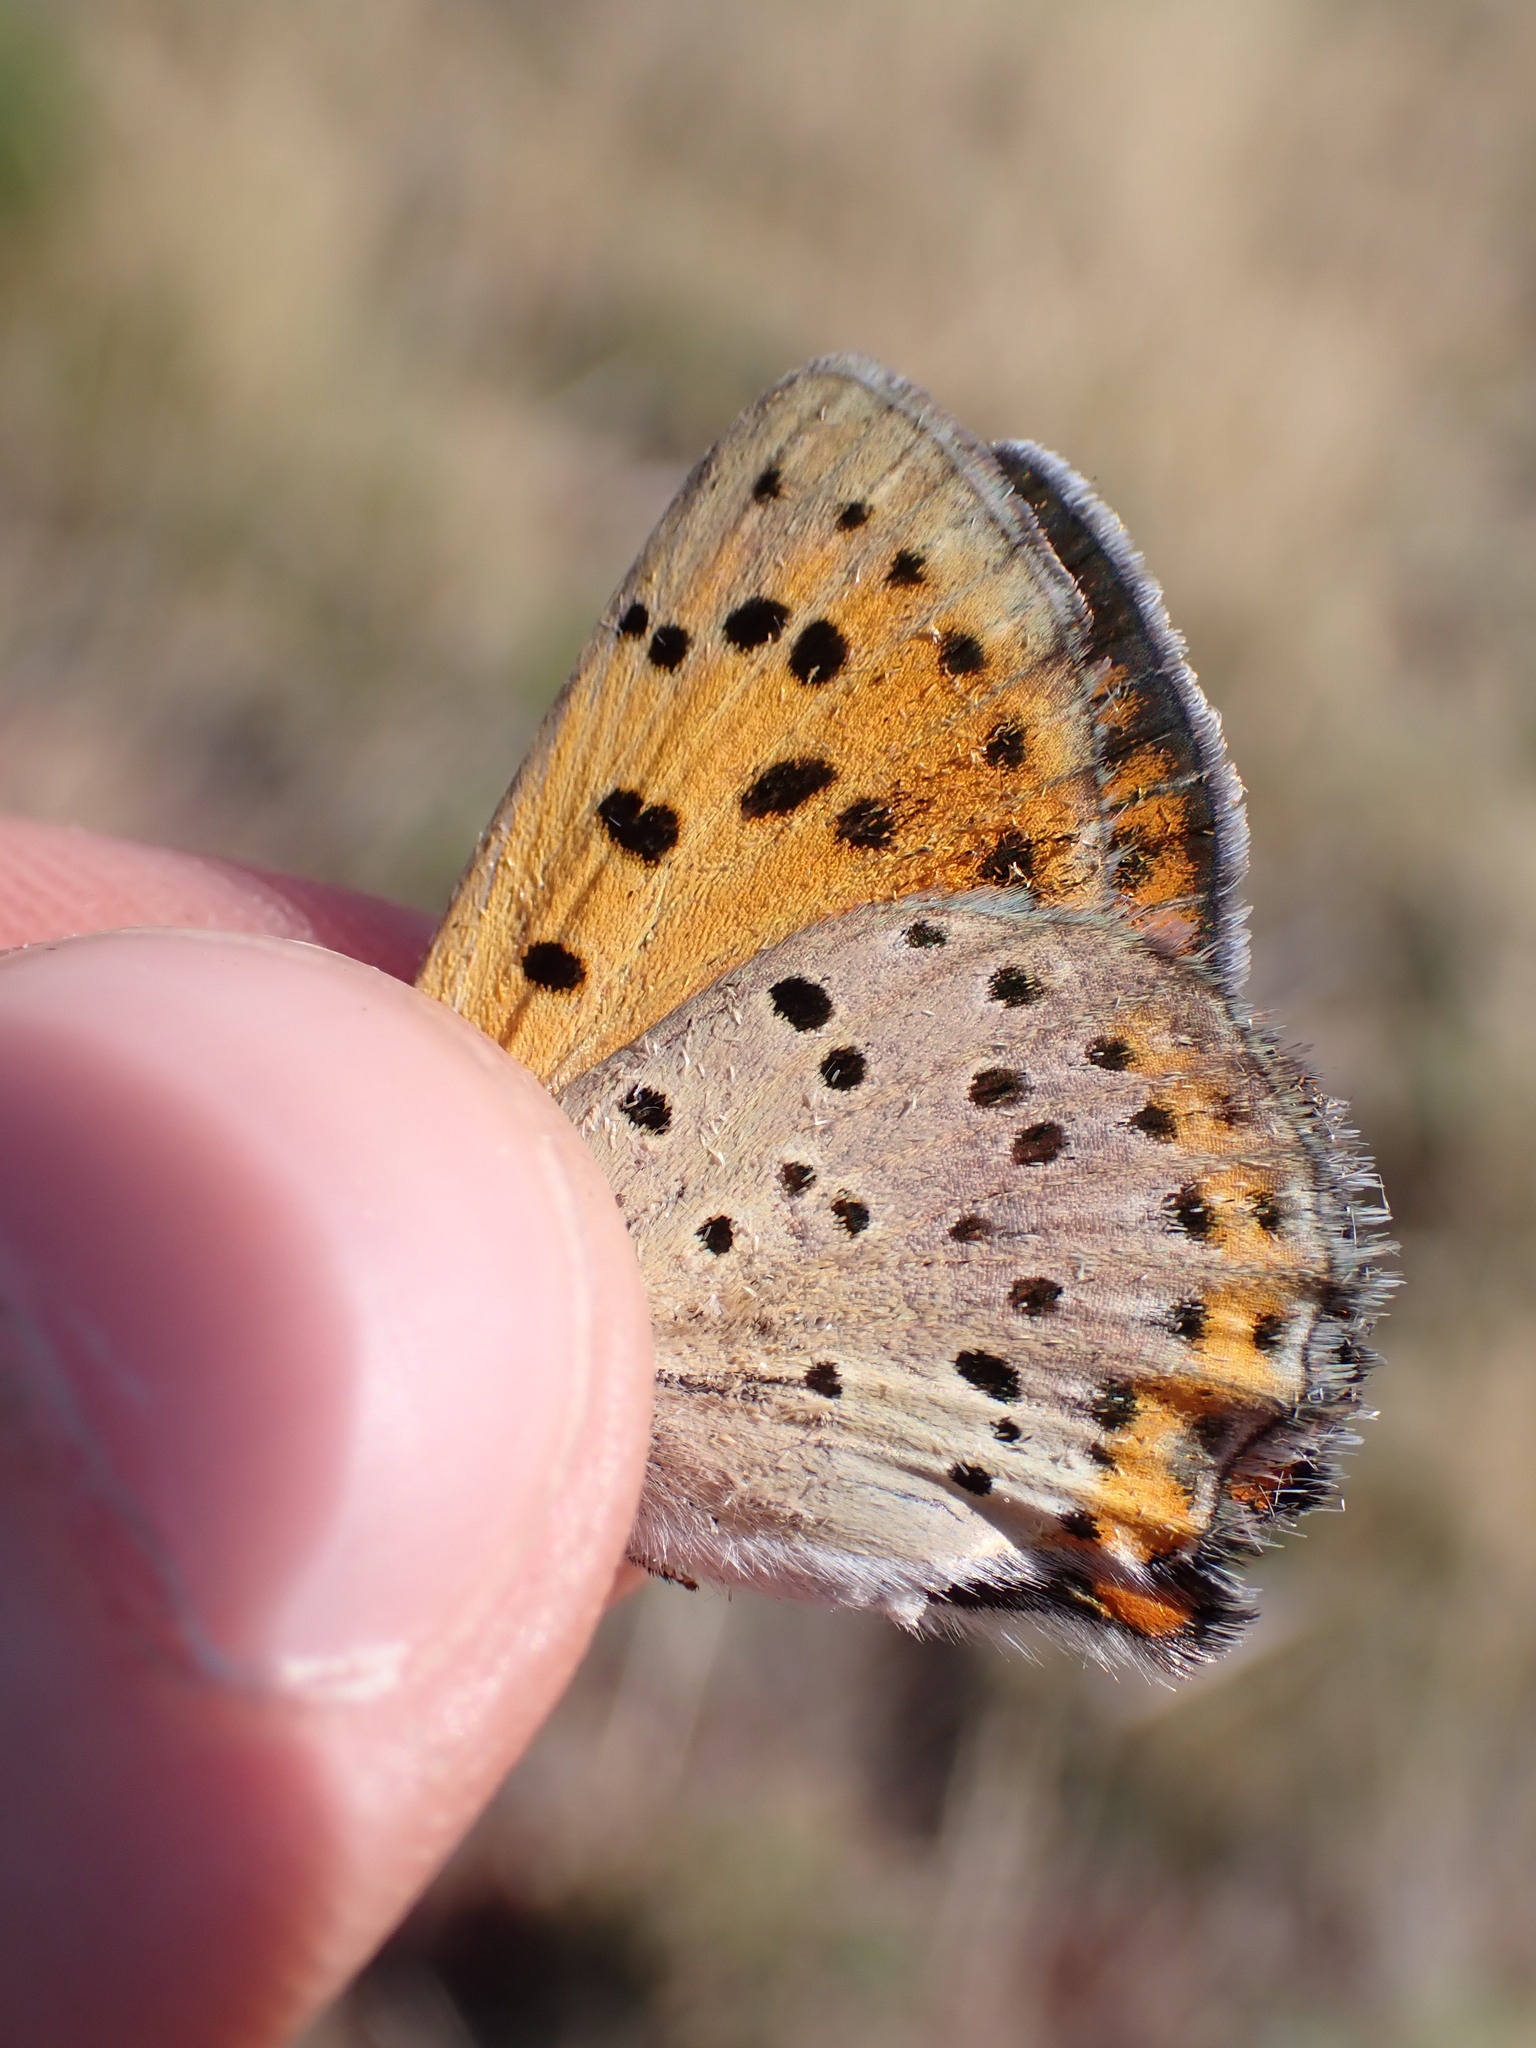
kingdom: Animalia
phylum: Arthropoda
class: Insecta
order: Lepidoptera
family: Lycaenidae
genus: Lycaena
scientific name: Lycaena alciphron
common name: Purple-shot copper
